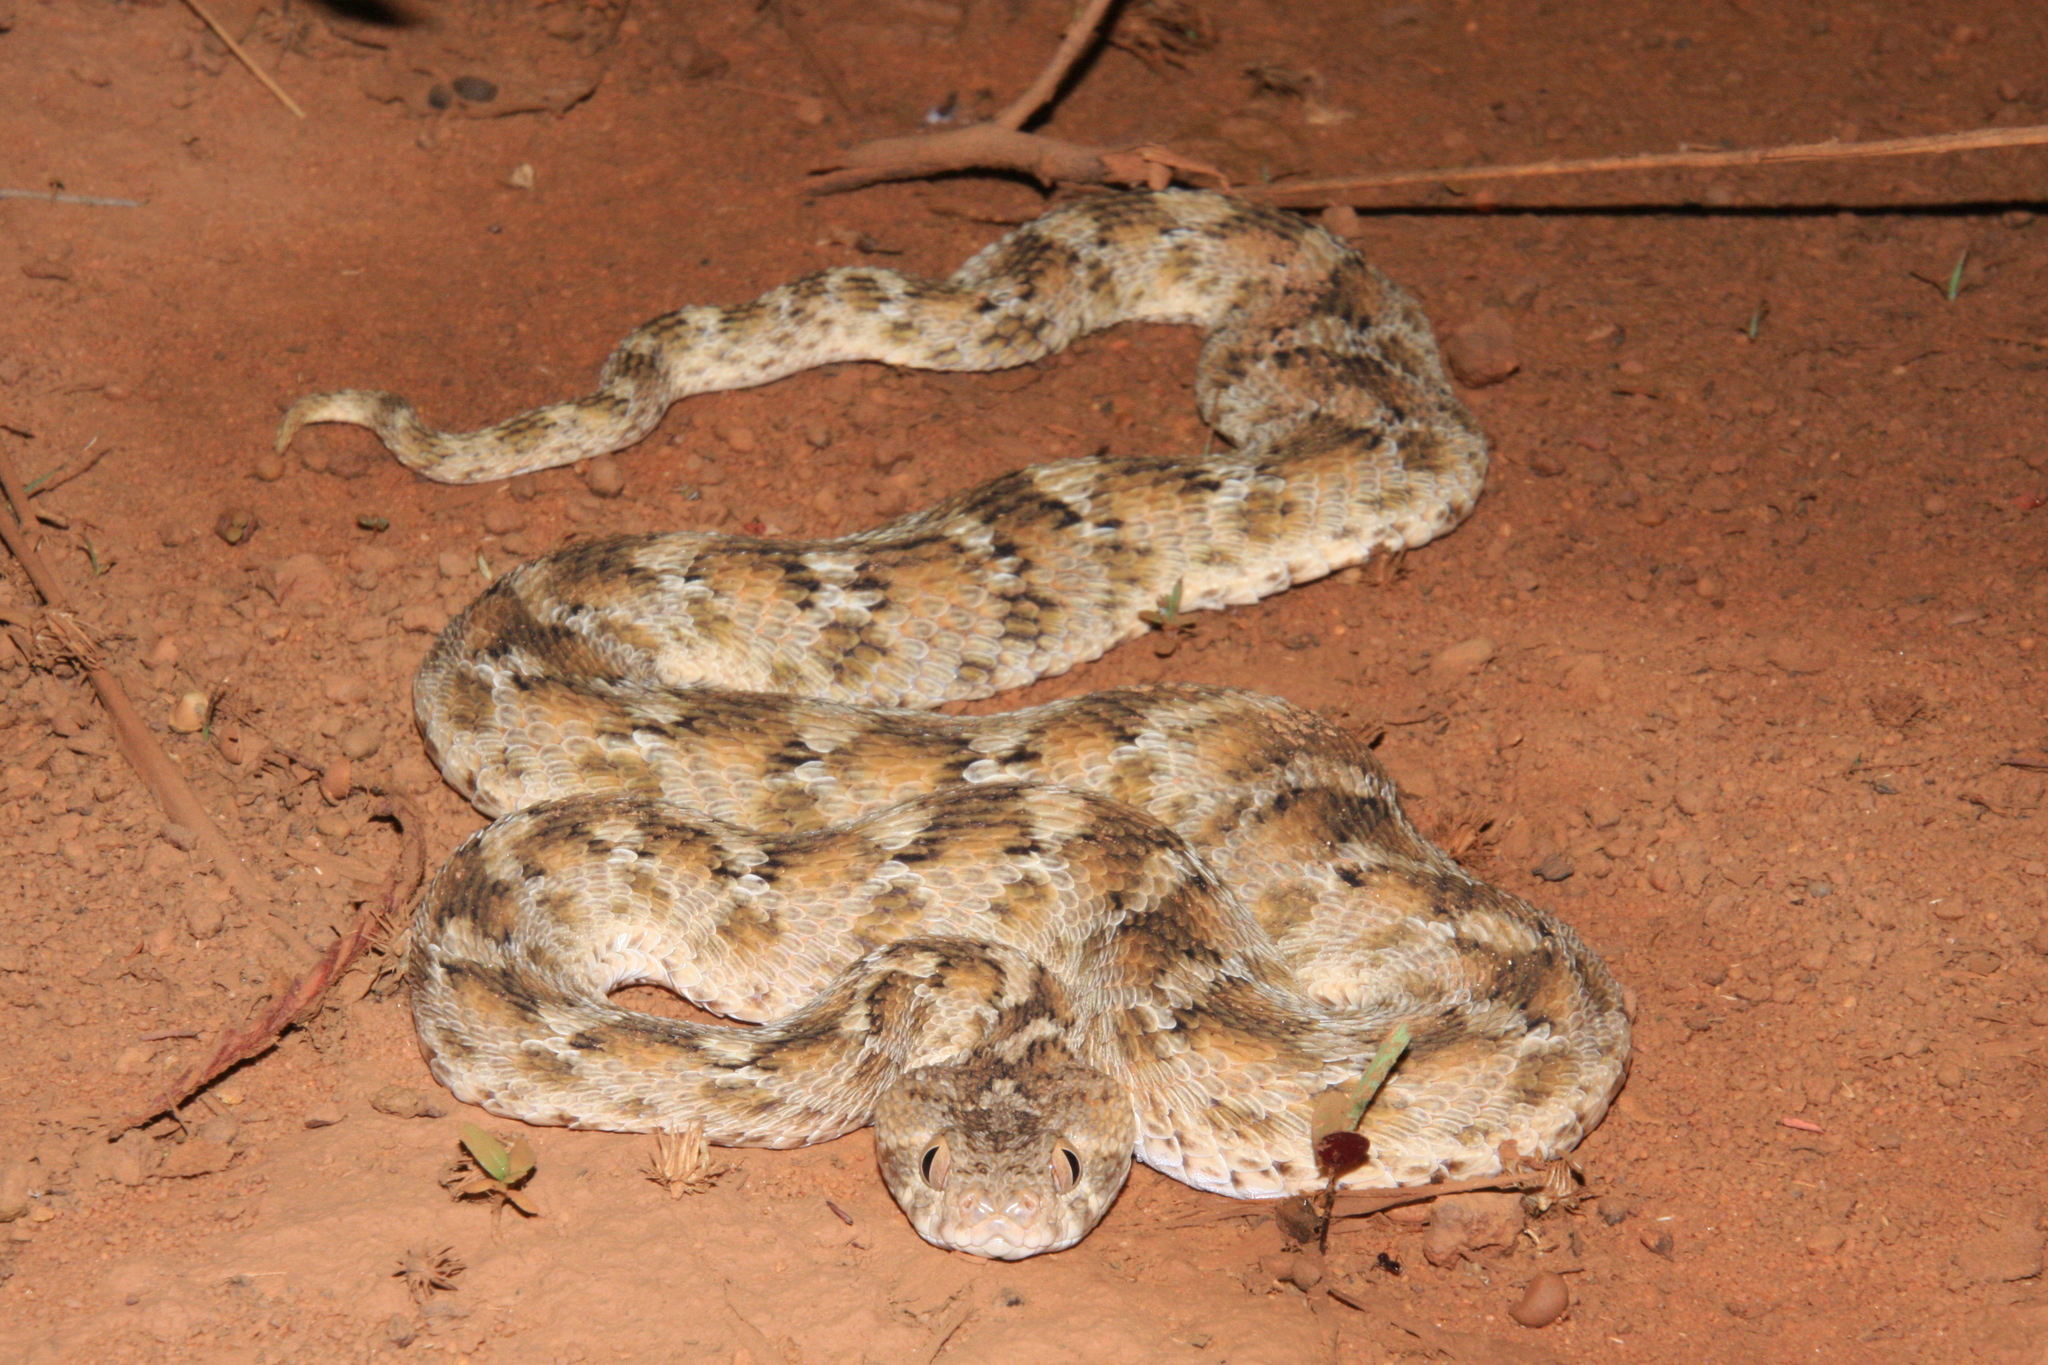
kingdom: Animalia
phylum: Chordata
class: Squamata
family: Viperidae
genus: Echis
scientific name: Echis leucogaster
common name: White-bellied carpet viper
